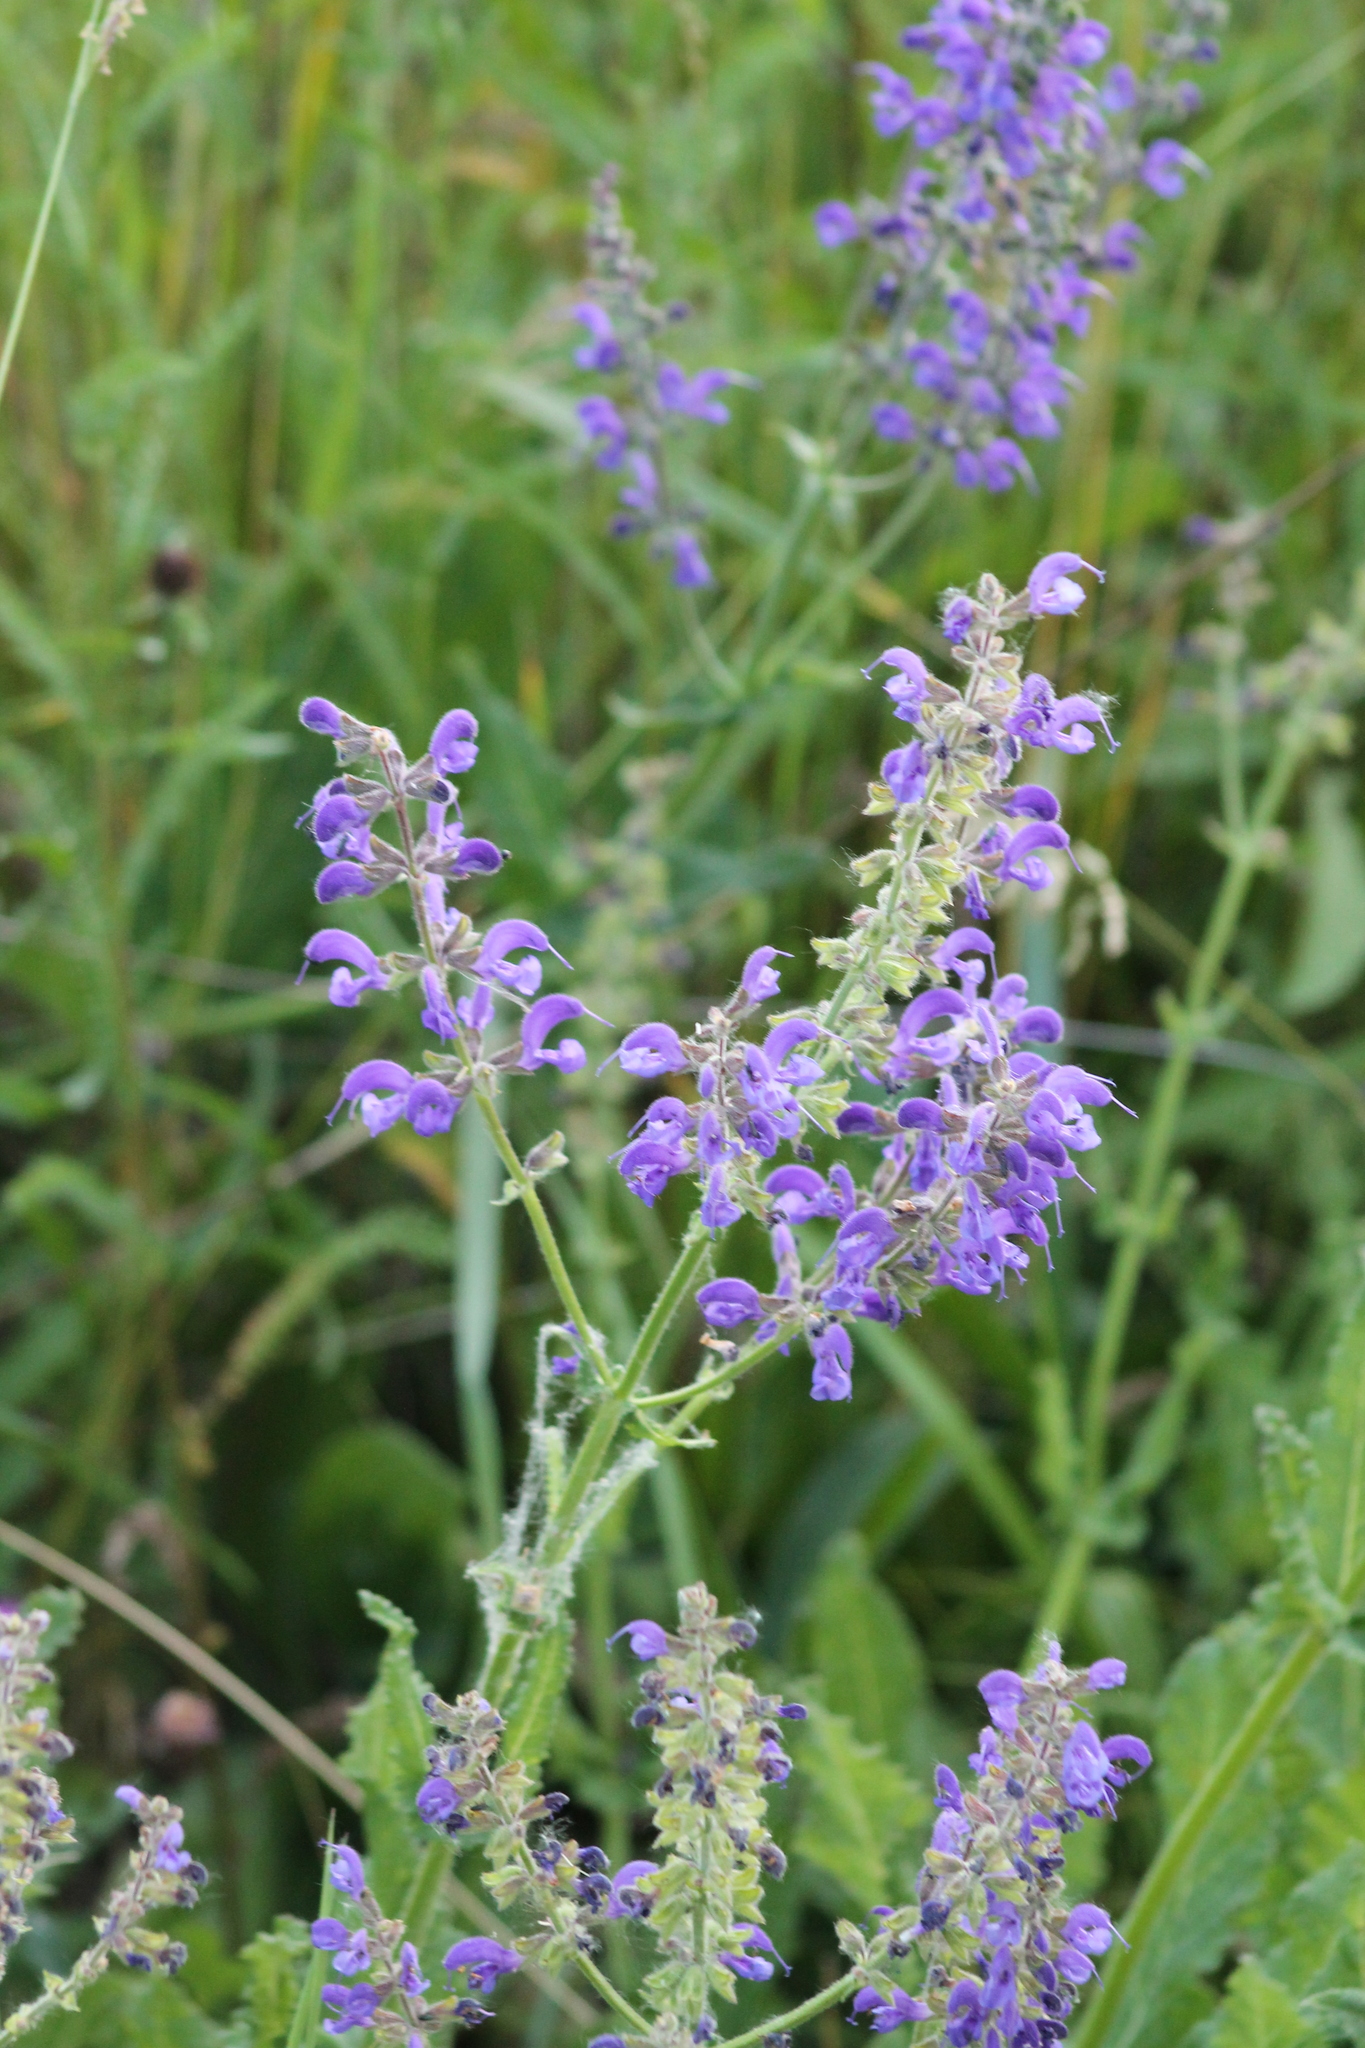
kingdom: Plantae
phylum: Tracheophyta
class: Magnoliopsida
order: Lamiales
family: Lamiaceae
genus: Salvia
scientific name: Salvia pratensis
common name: Meadow sage
